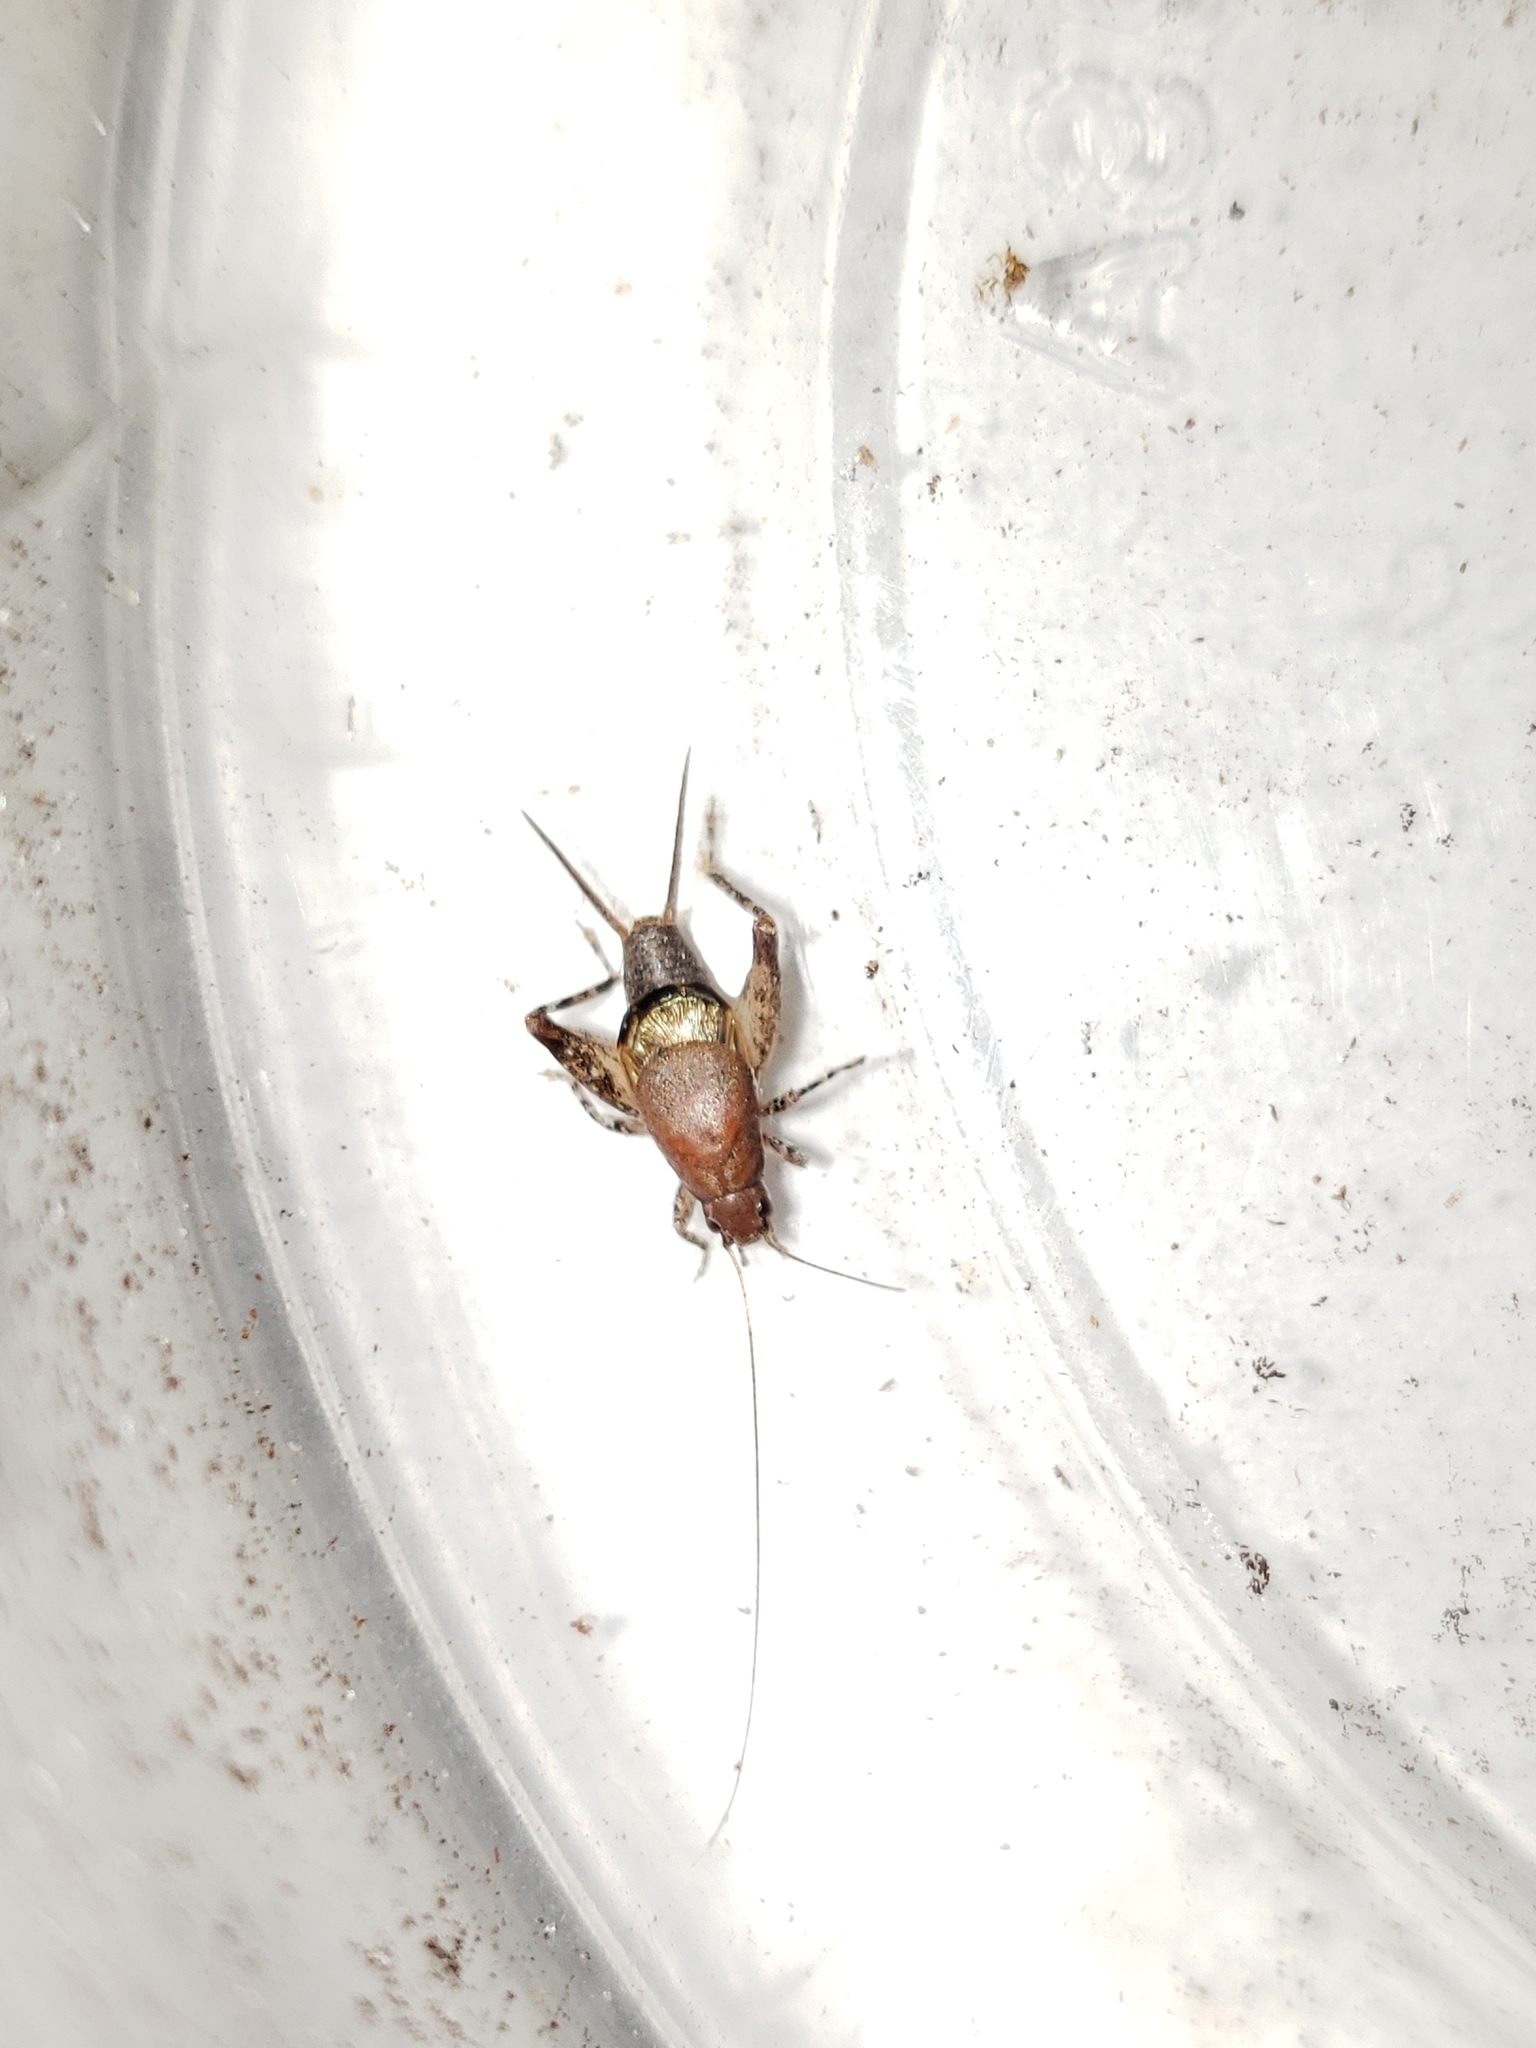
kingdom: Animalia
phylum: Arthropoda
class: Insecta
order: Orthoptera
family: Mogoplistidae
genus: Cycloptilum
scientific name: Cycloptilum bidens
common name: Two-toothed scaly cricket
